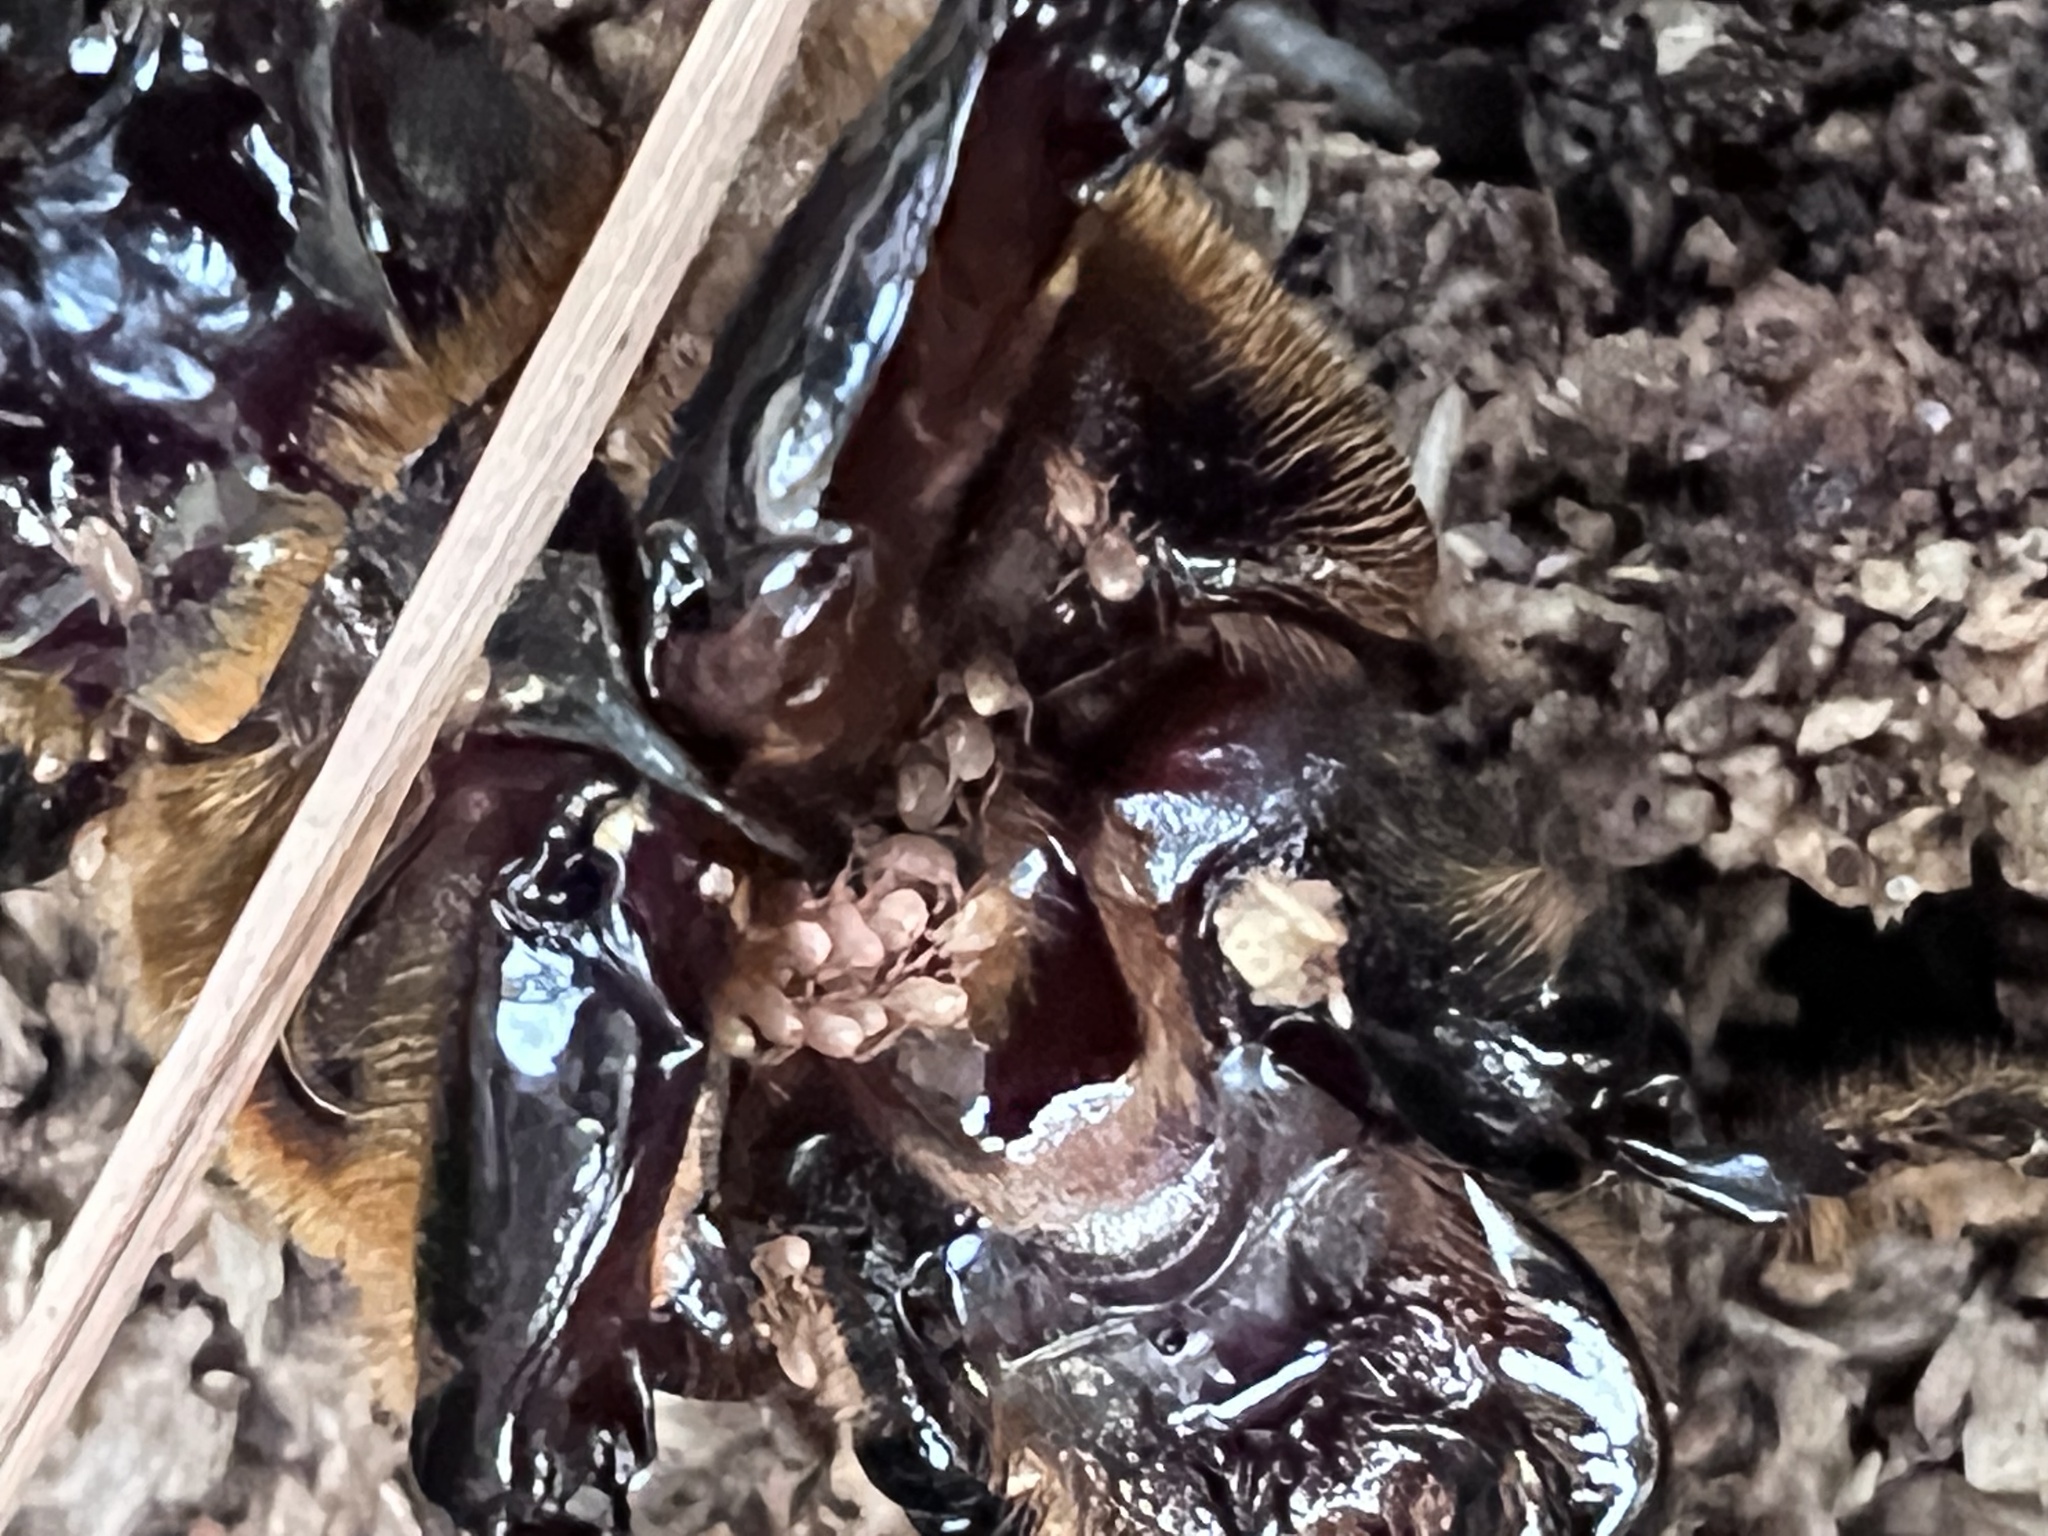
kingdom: Animalia
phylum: Arthropoda
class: Arachnida
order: Mesostigmata
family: Euzerconidae
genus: Euzercon
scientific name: Euzercon
